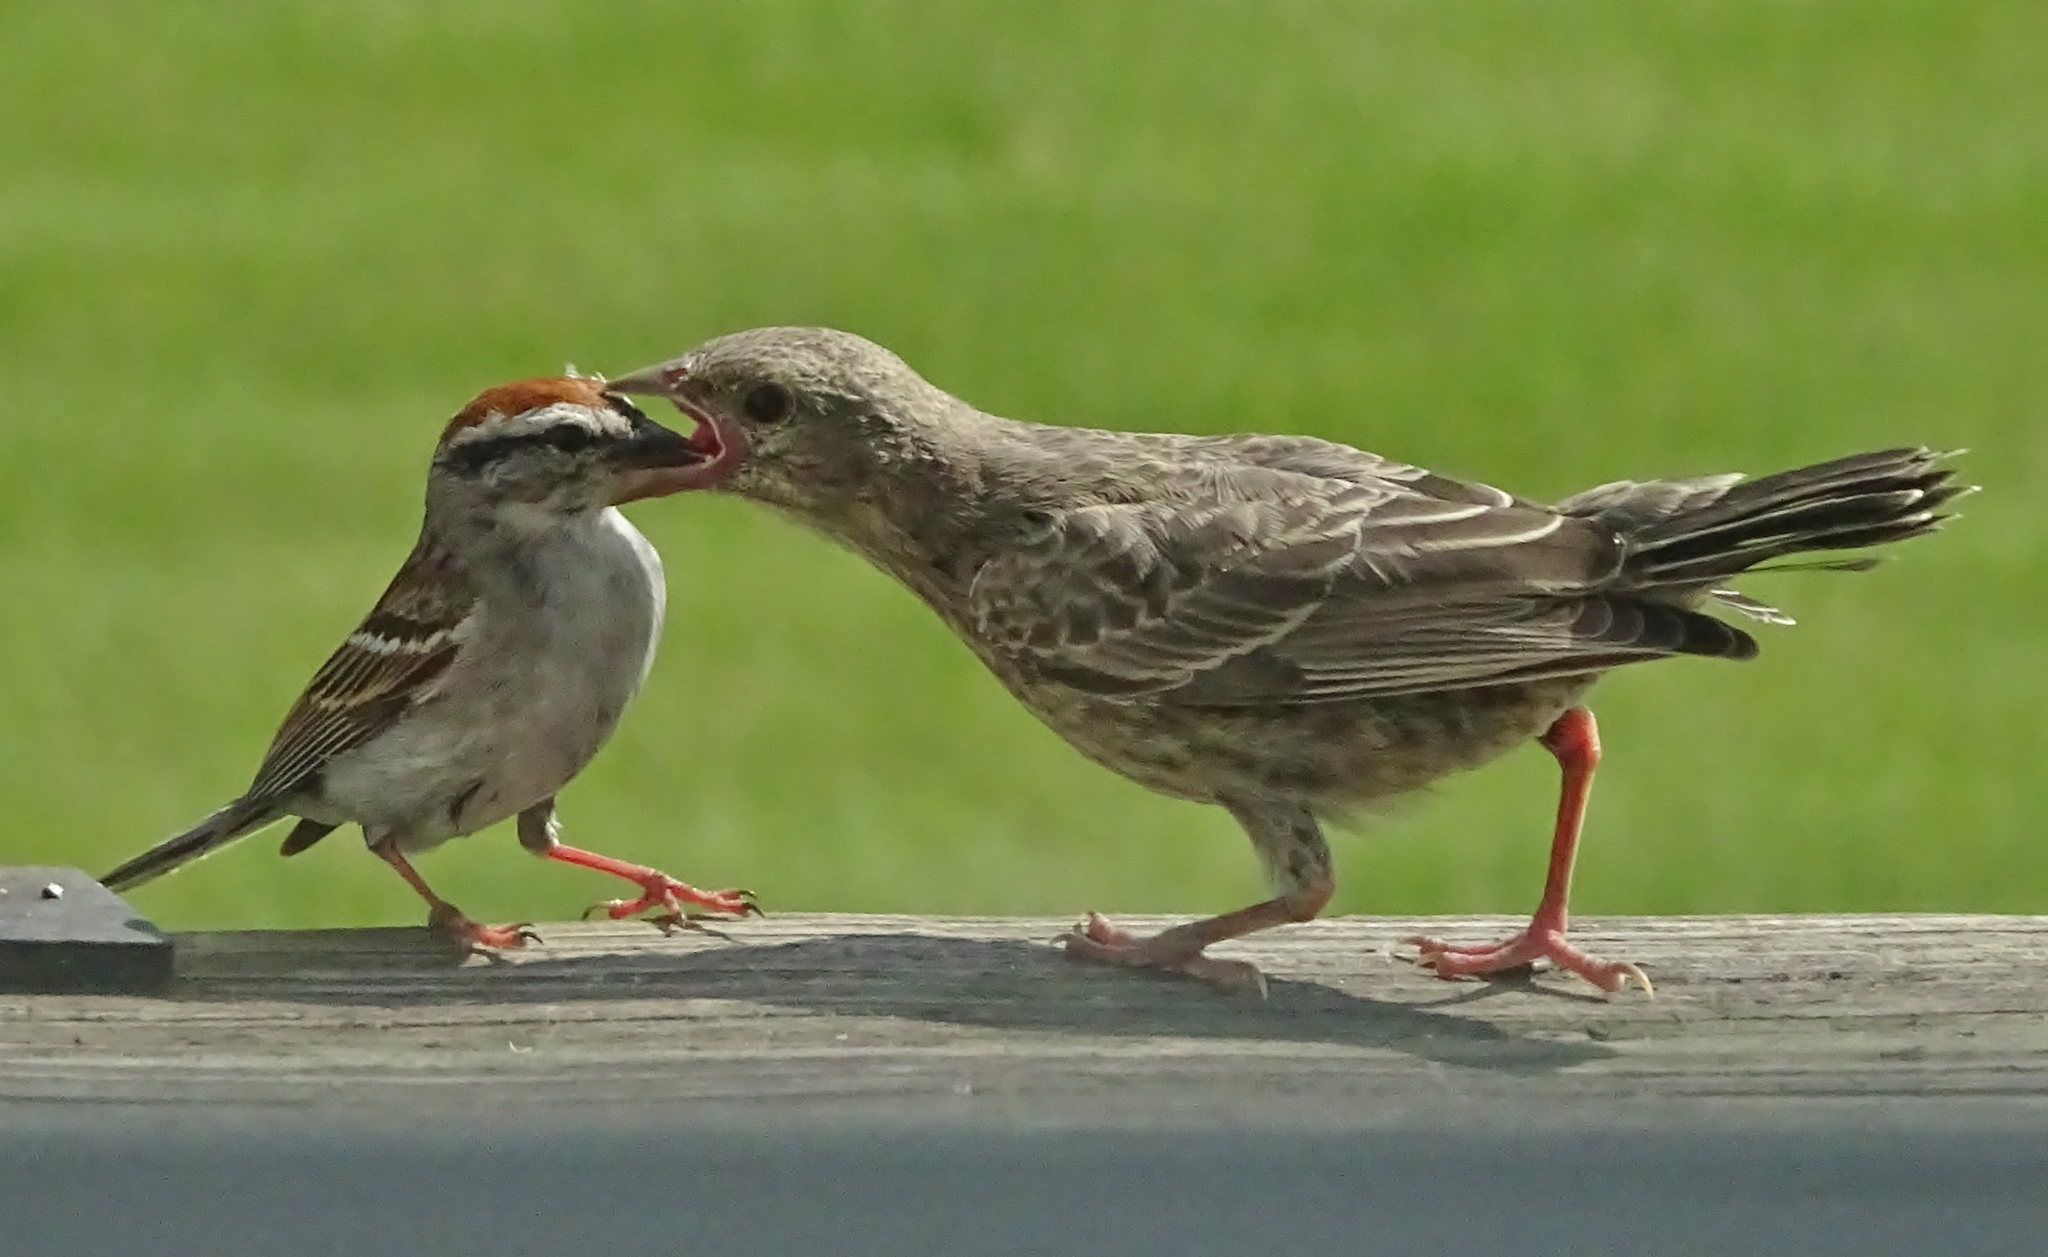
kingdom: Animalia
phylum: Chordata
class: Aves
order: Passeriformes
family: Passerellidae
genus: Spizella
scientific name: Spizella passerina
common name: Chipping sparrow
